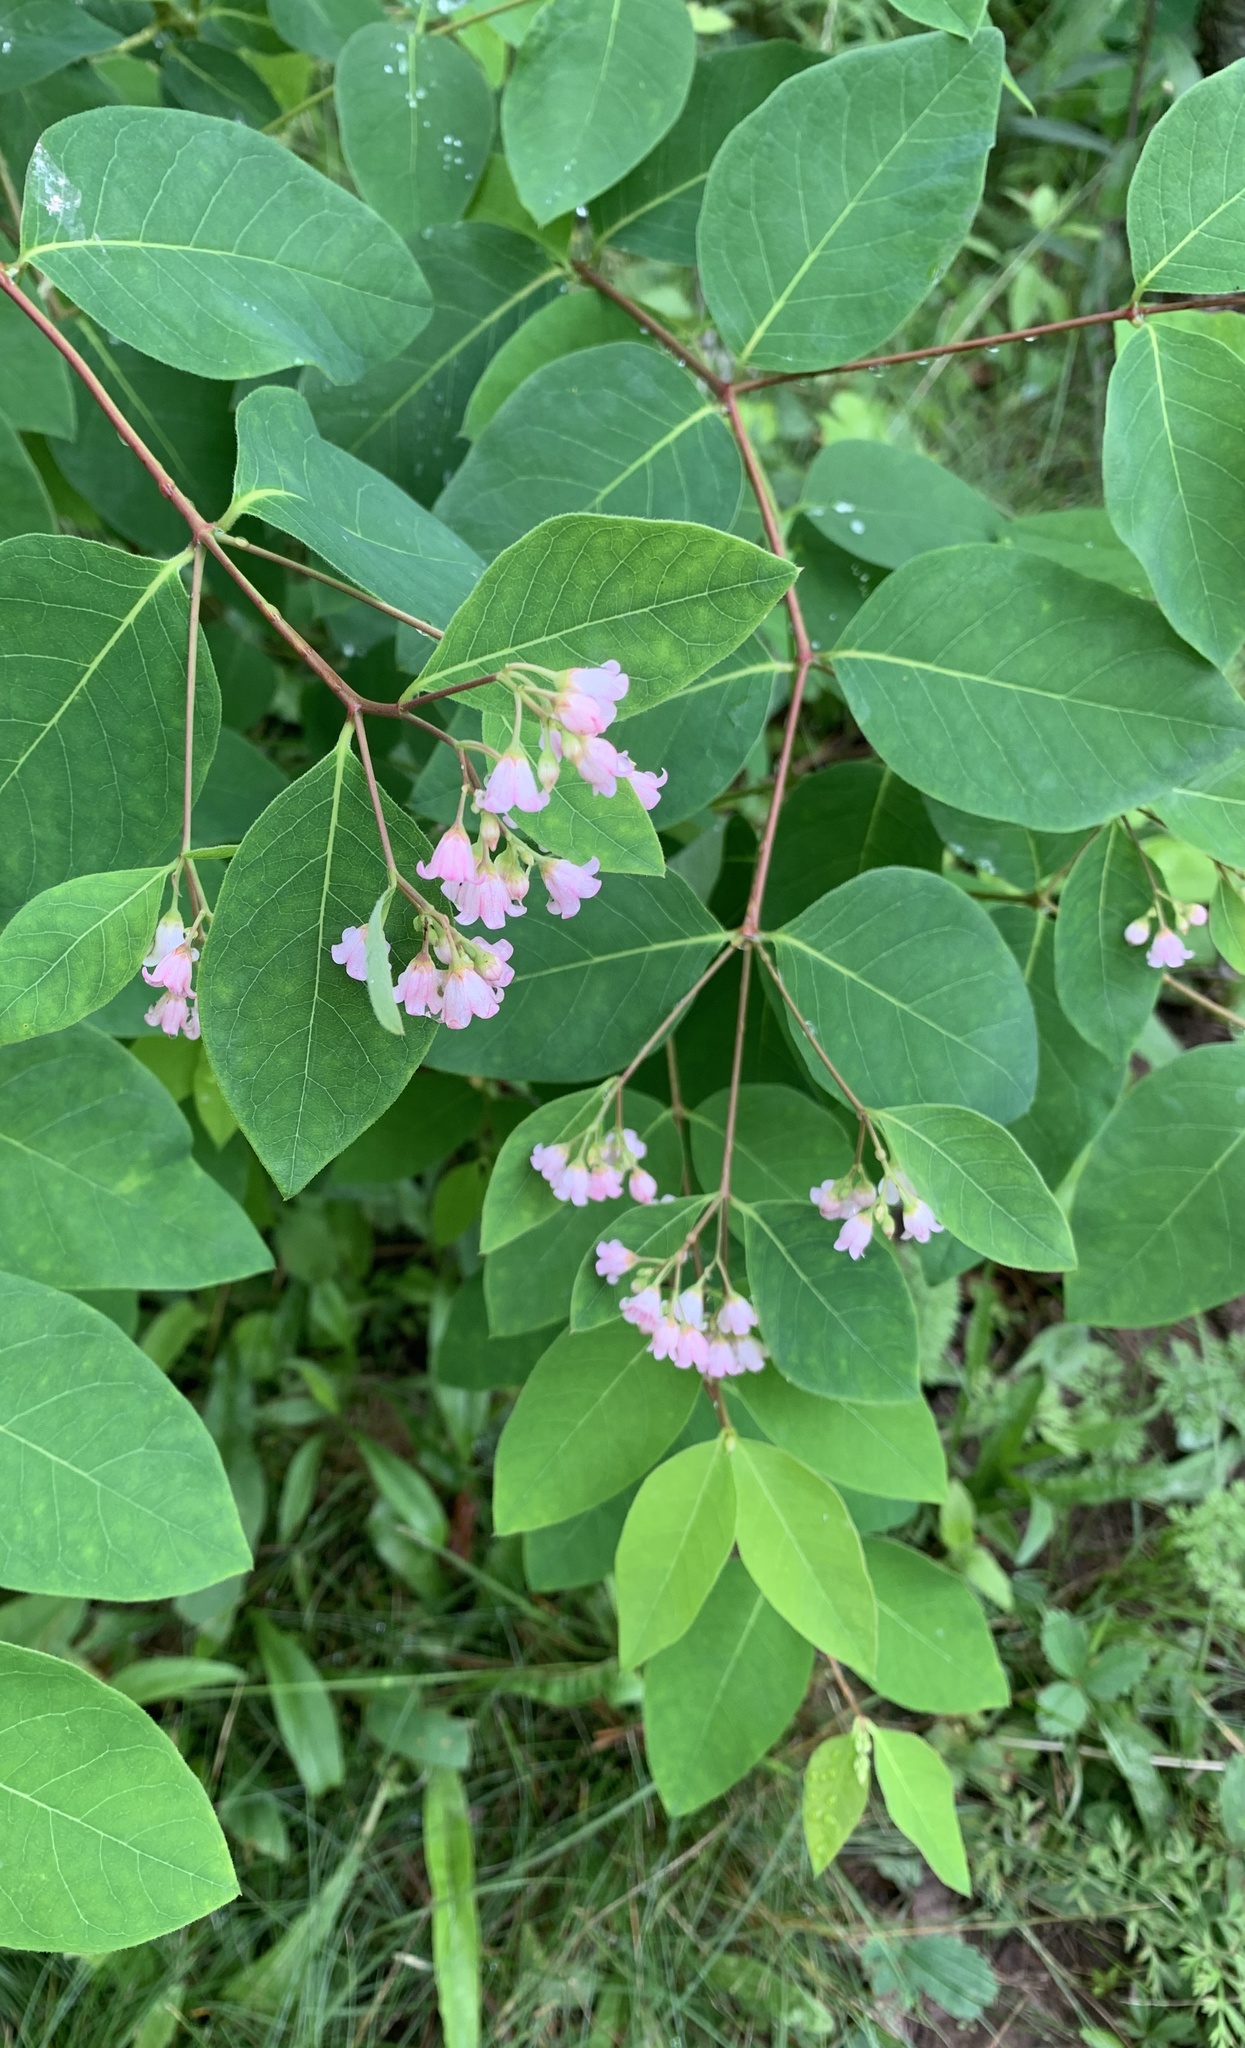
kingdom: Plantae
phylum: Tracheophyta
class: Magnoliopsida
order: Gentianales
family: Apocynaceae
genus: Apocynum
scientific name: Apocynum androsaemifolium
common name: Spreading dogbane
